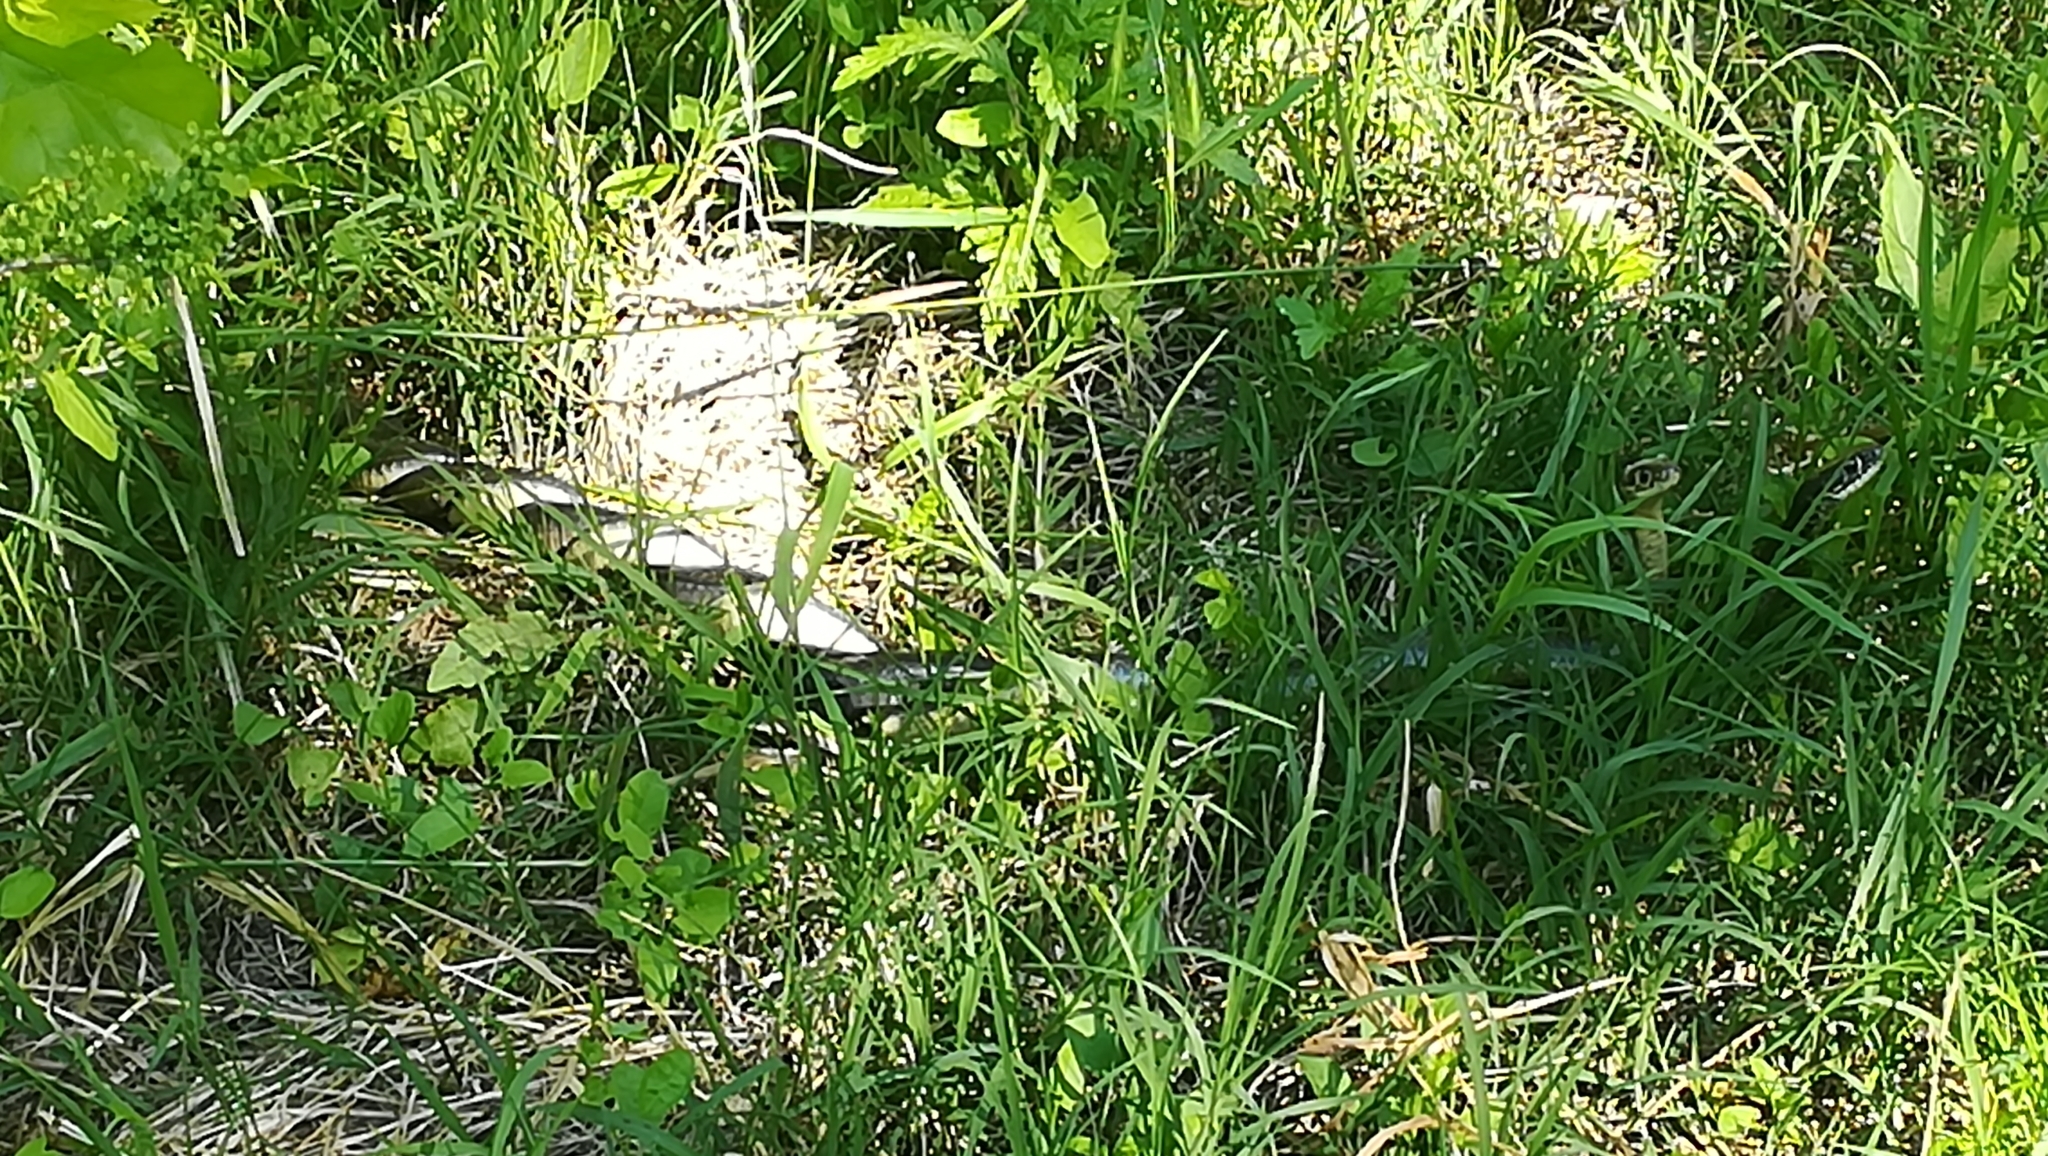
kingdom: Animalia
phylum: Chordata
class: Squamata
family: Colubridae
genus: Hierophis
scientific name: Hierophis viridiflavus
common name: Green whip snake
